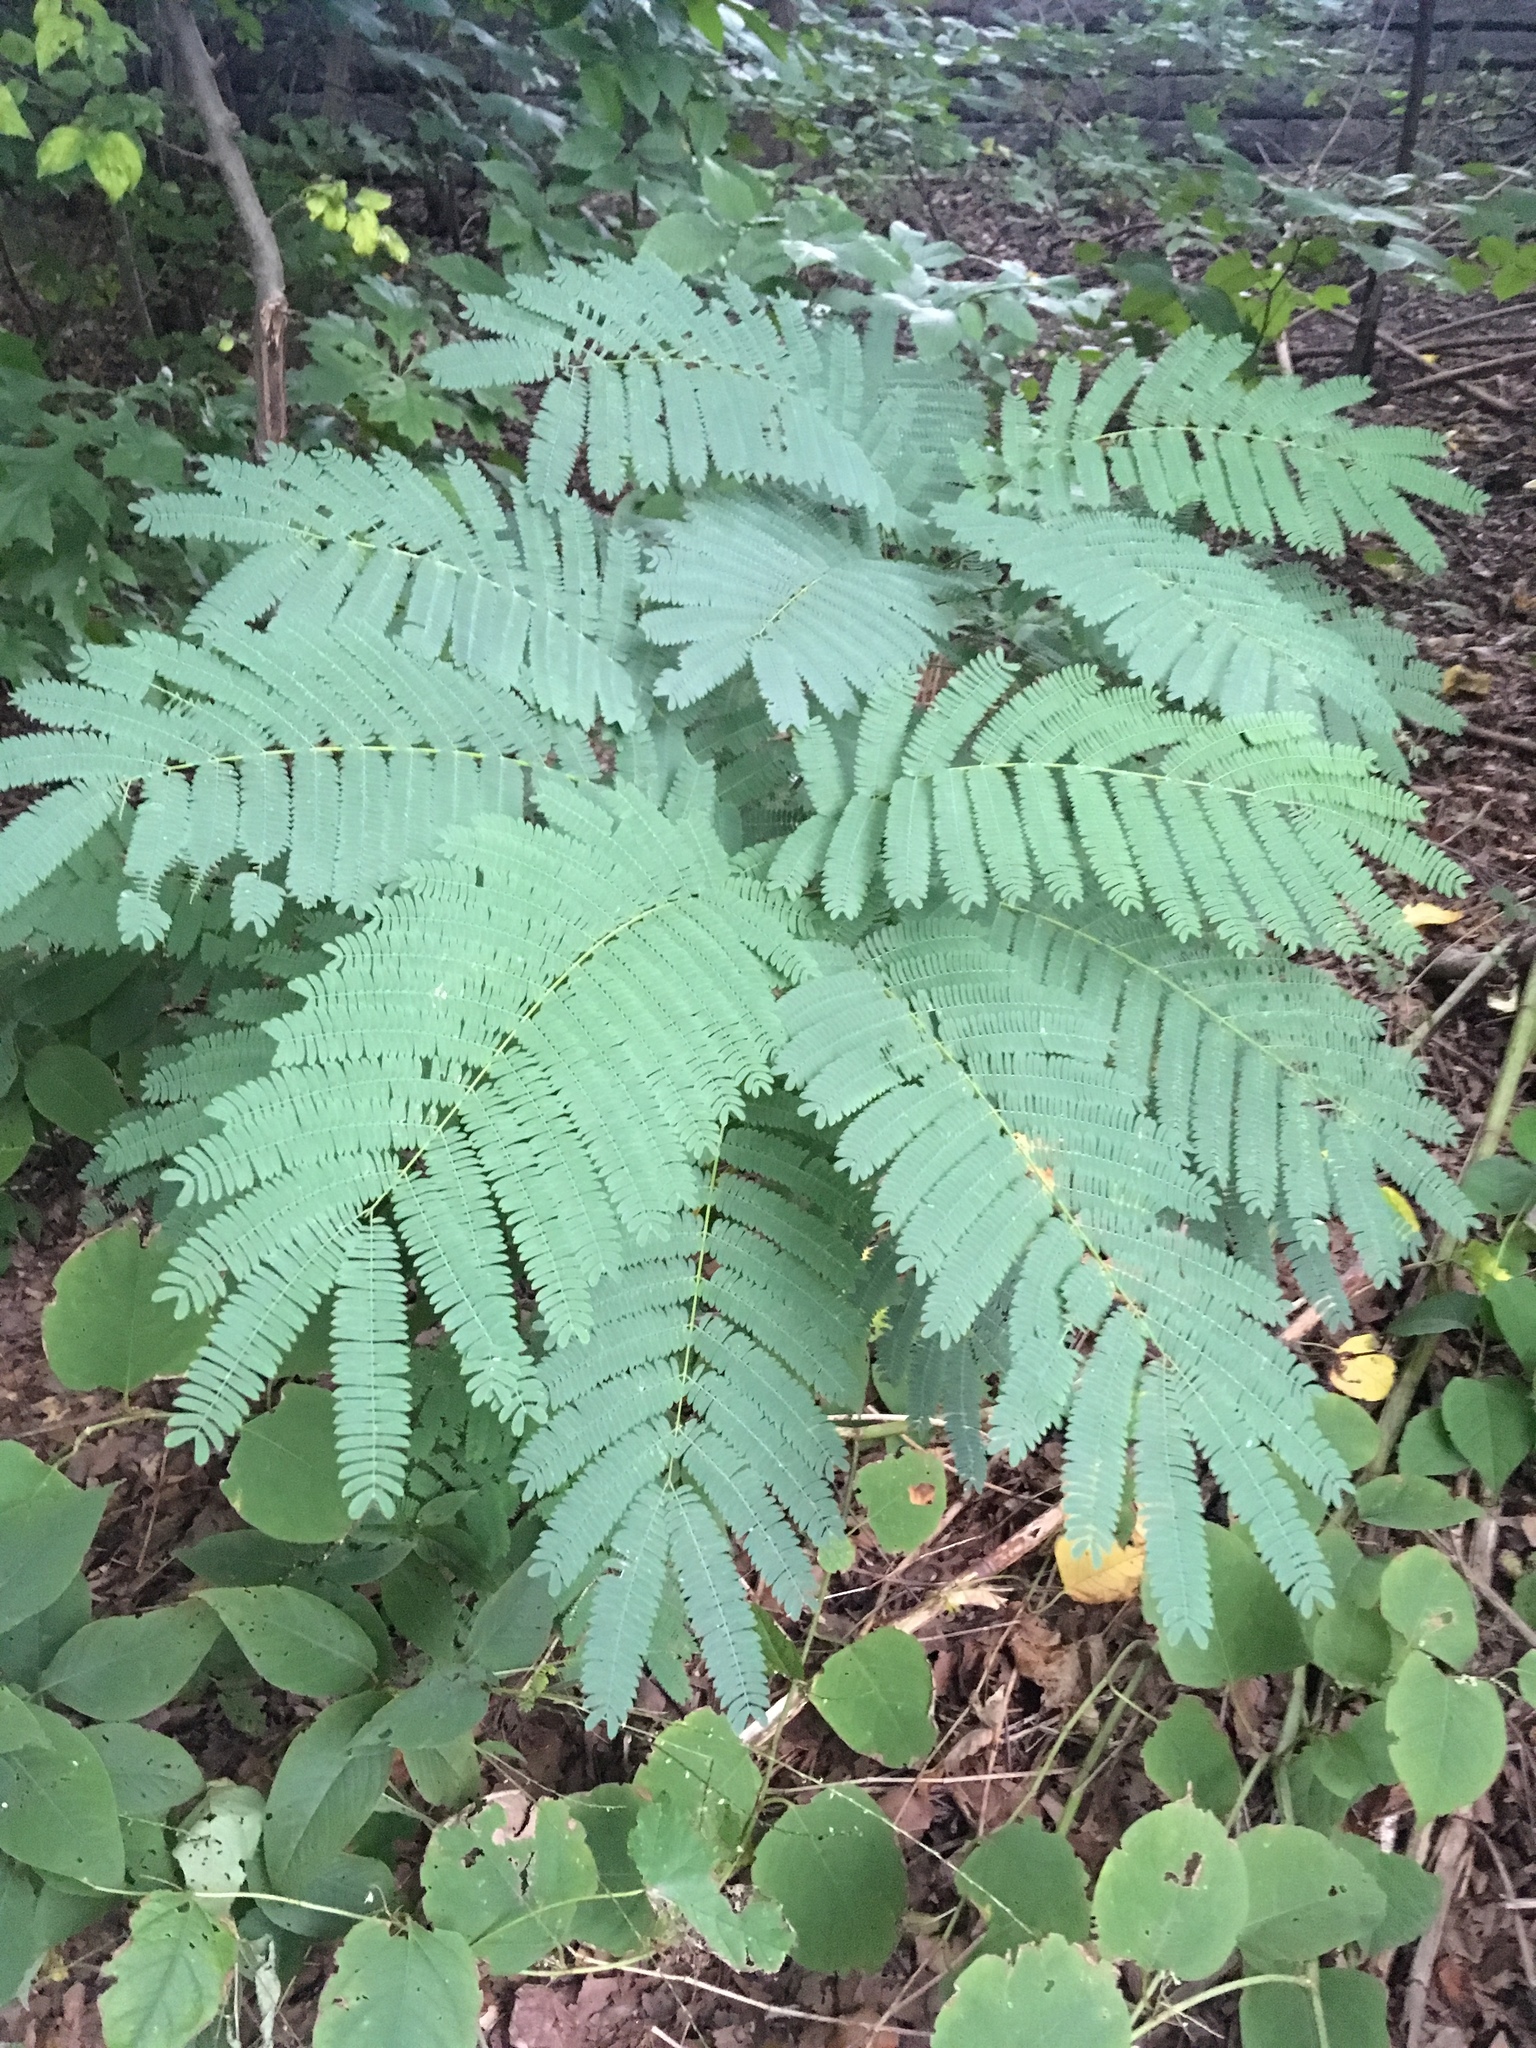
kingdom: Plantae
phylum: Tracheophyta
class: Magnoliopsida
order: Fabales
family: Fabaceae
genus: Albizia
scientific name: Albizia julibrissin
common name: Silktree
